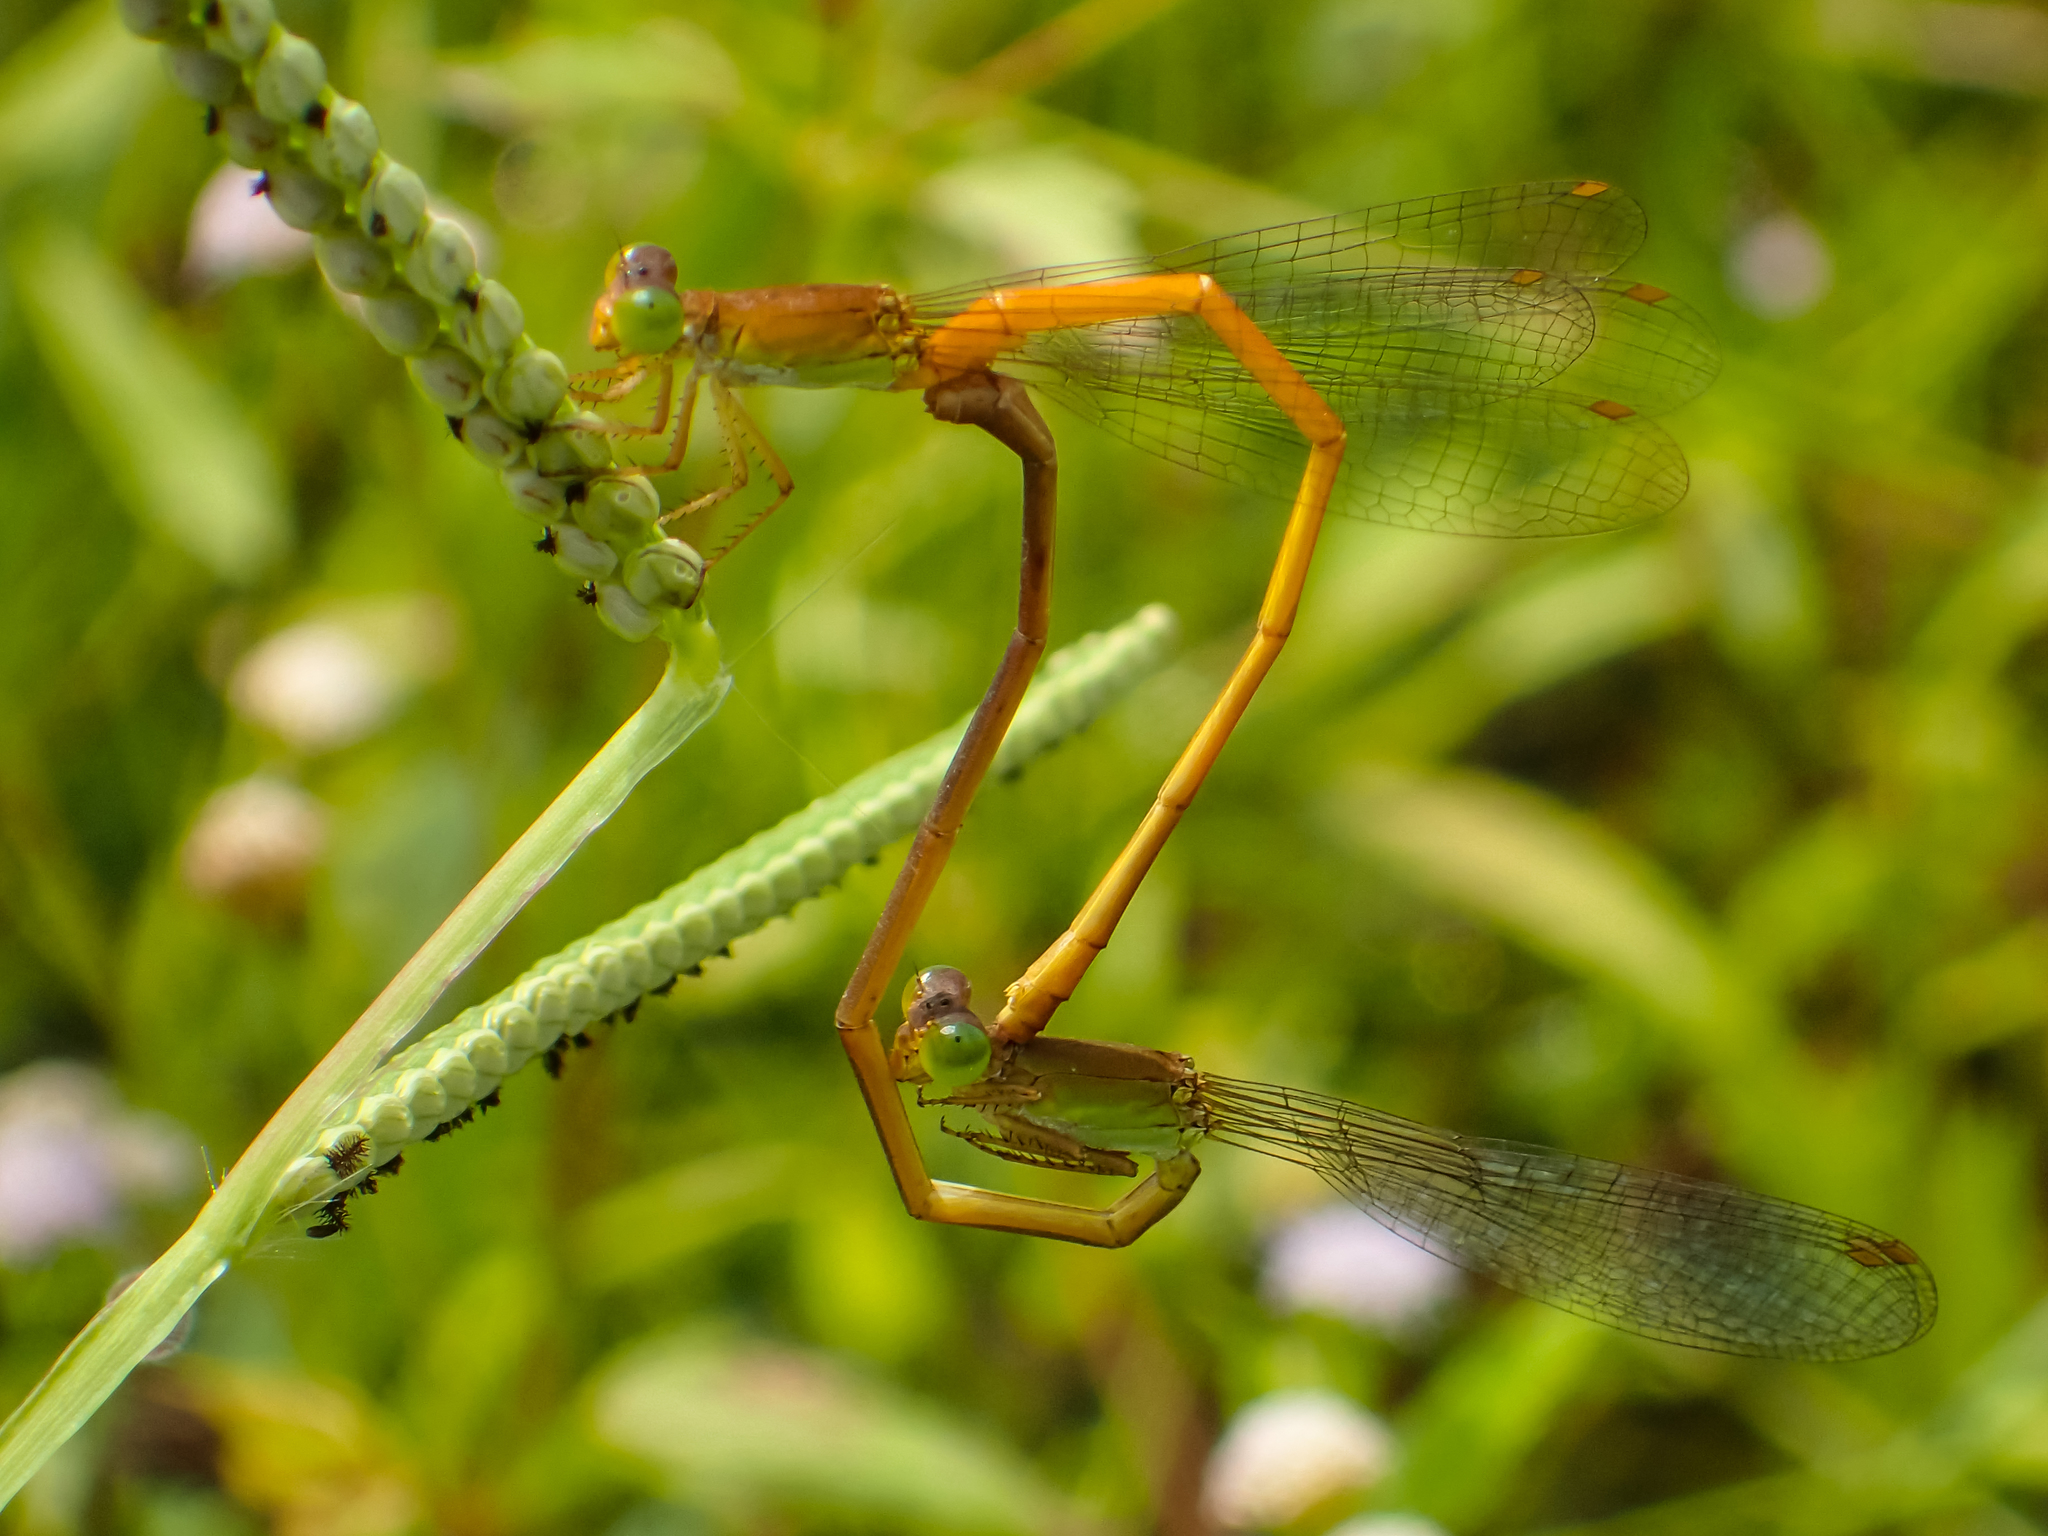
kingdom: Animalia
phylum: Arthropoda
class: Insecta
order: Odonata
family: Coenagrionidae
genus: Ceriagrion
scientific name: Ceriagrion calamineum
